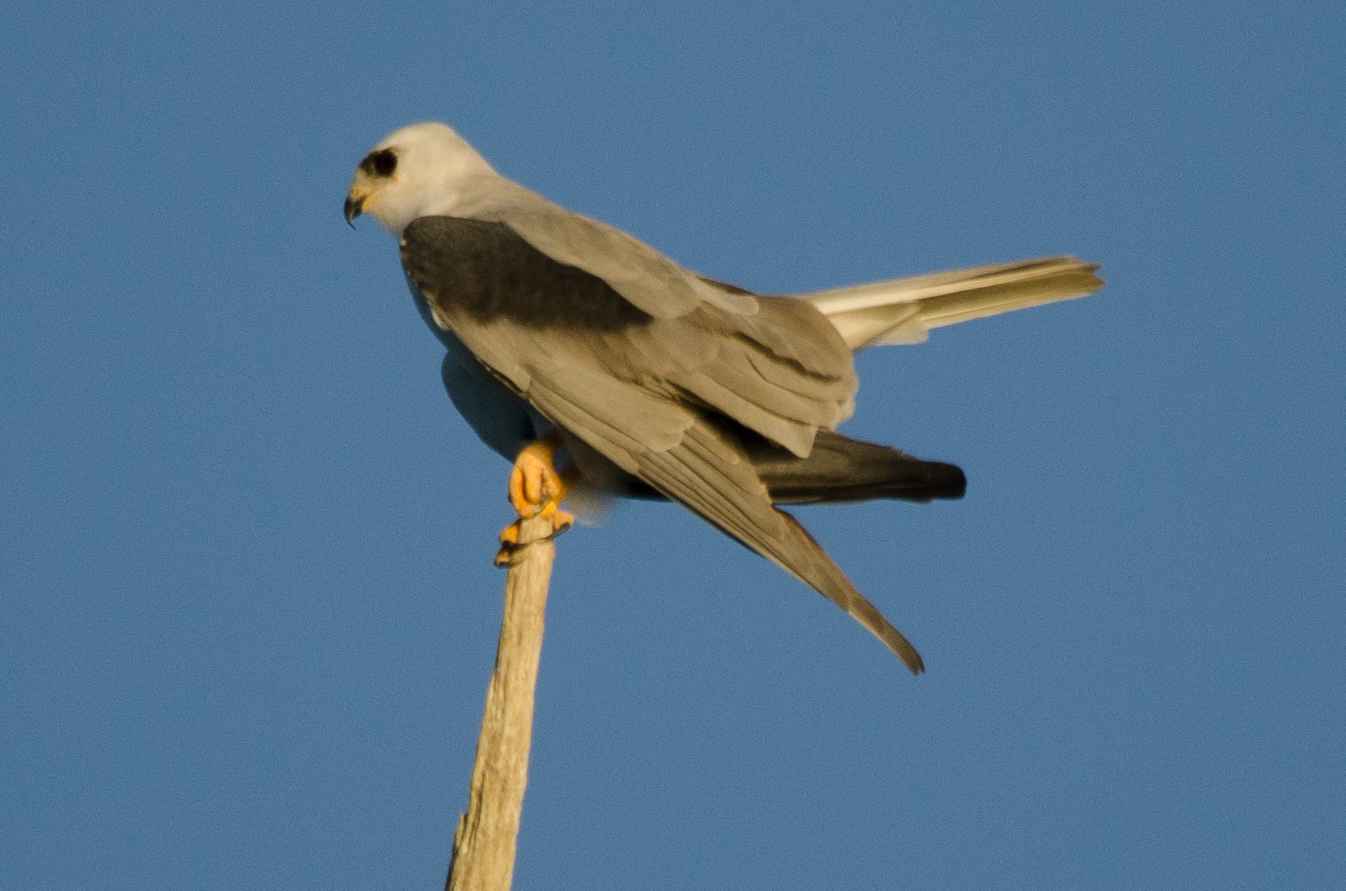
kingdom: Animalia
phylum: Chordata
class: Aves
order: Accipitriformes
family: Accipitridae
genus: Elanus
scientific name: Elanus leucurus
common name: White-tailed kite
